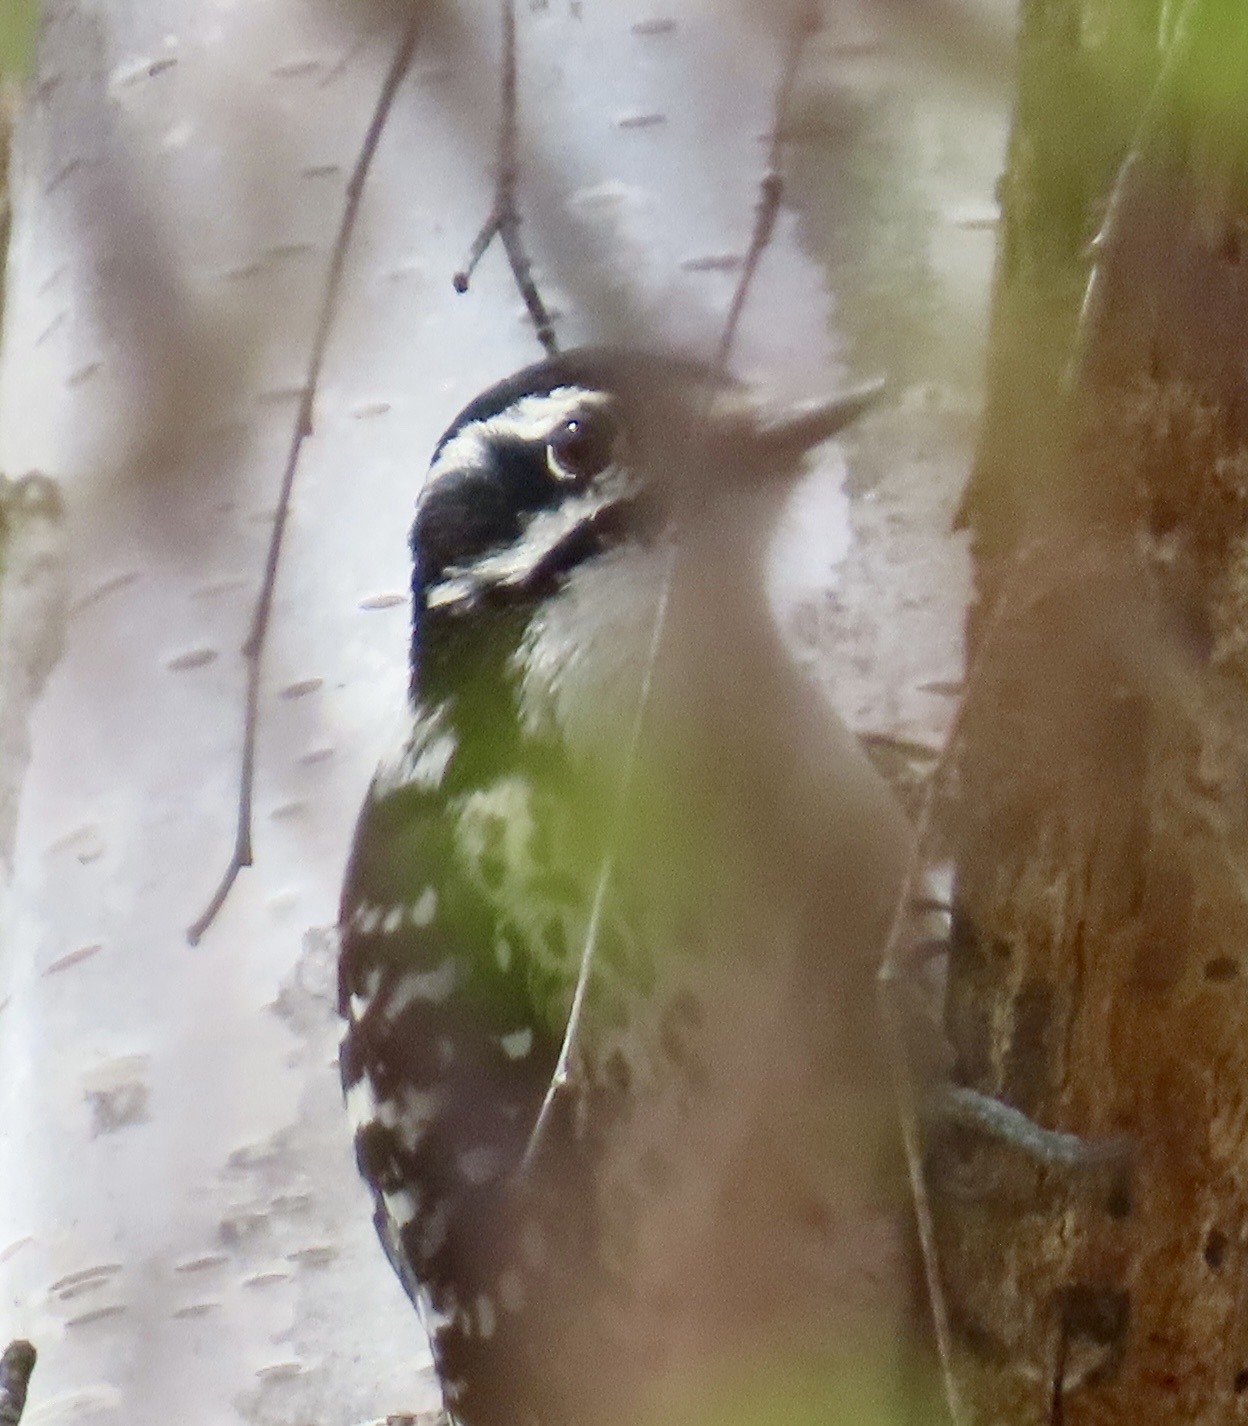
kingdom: Animalia
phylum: Chordata
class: Aves
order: Piciformes
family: Picidae
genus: Dryobates
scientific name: Dryobates nuttallii
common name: Nuttall's woodpecker
